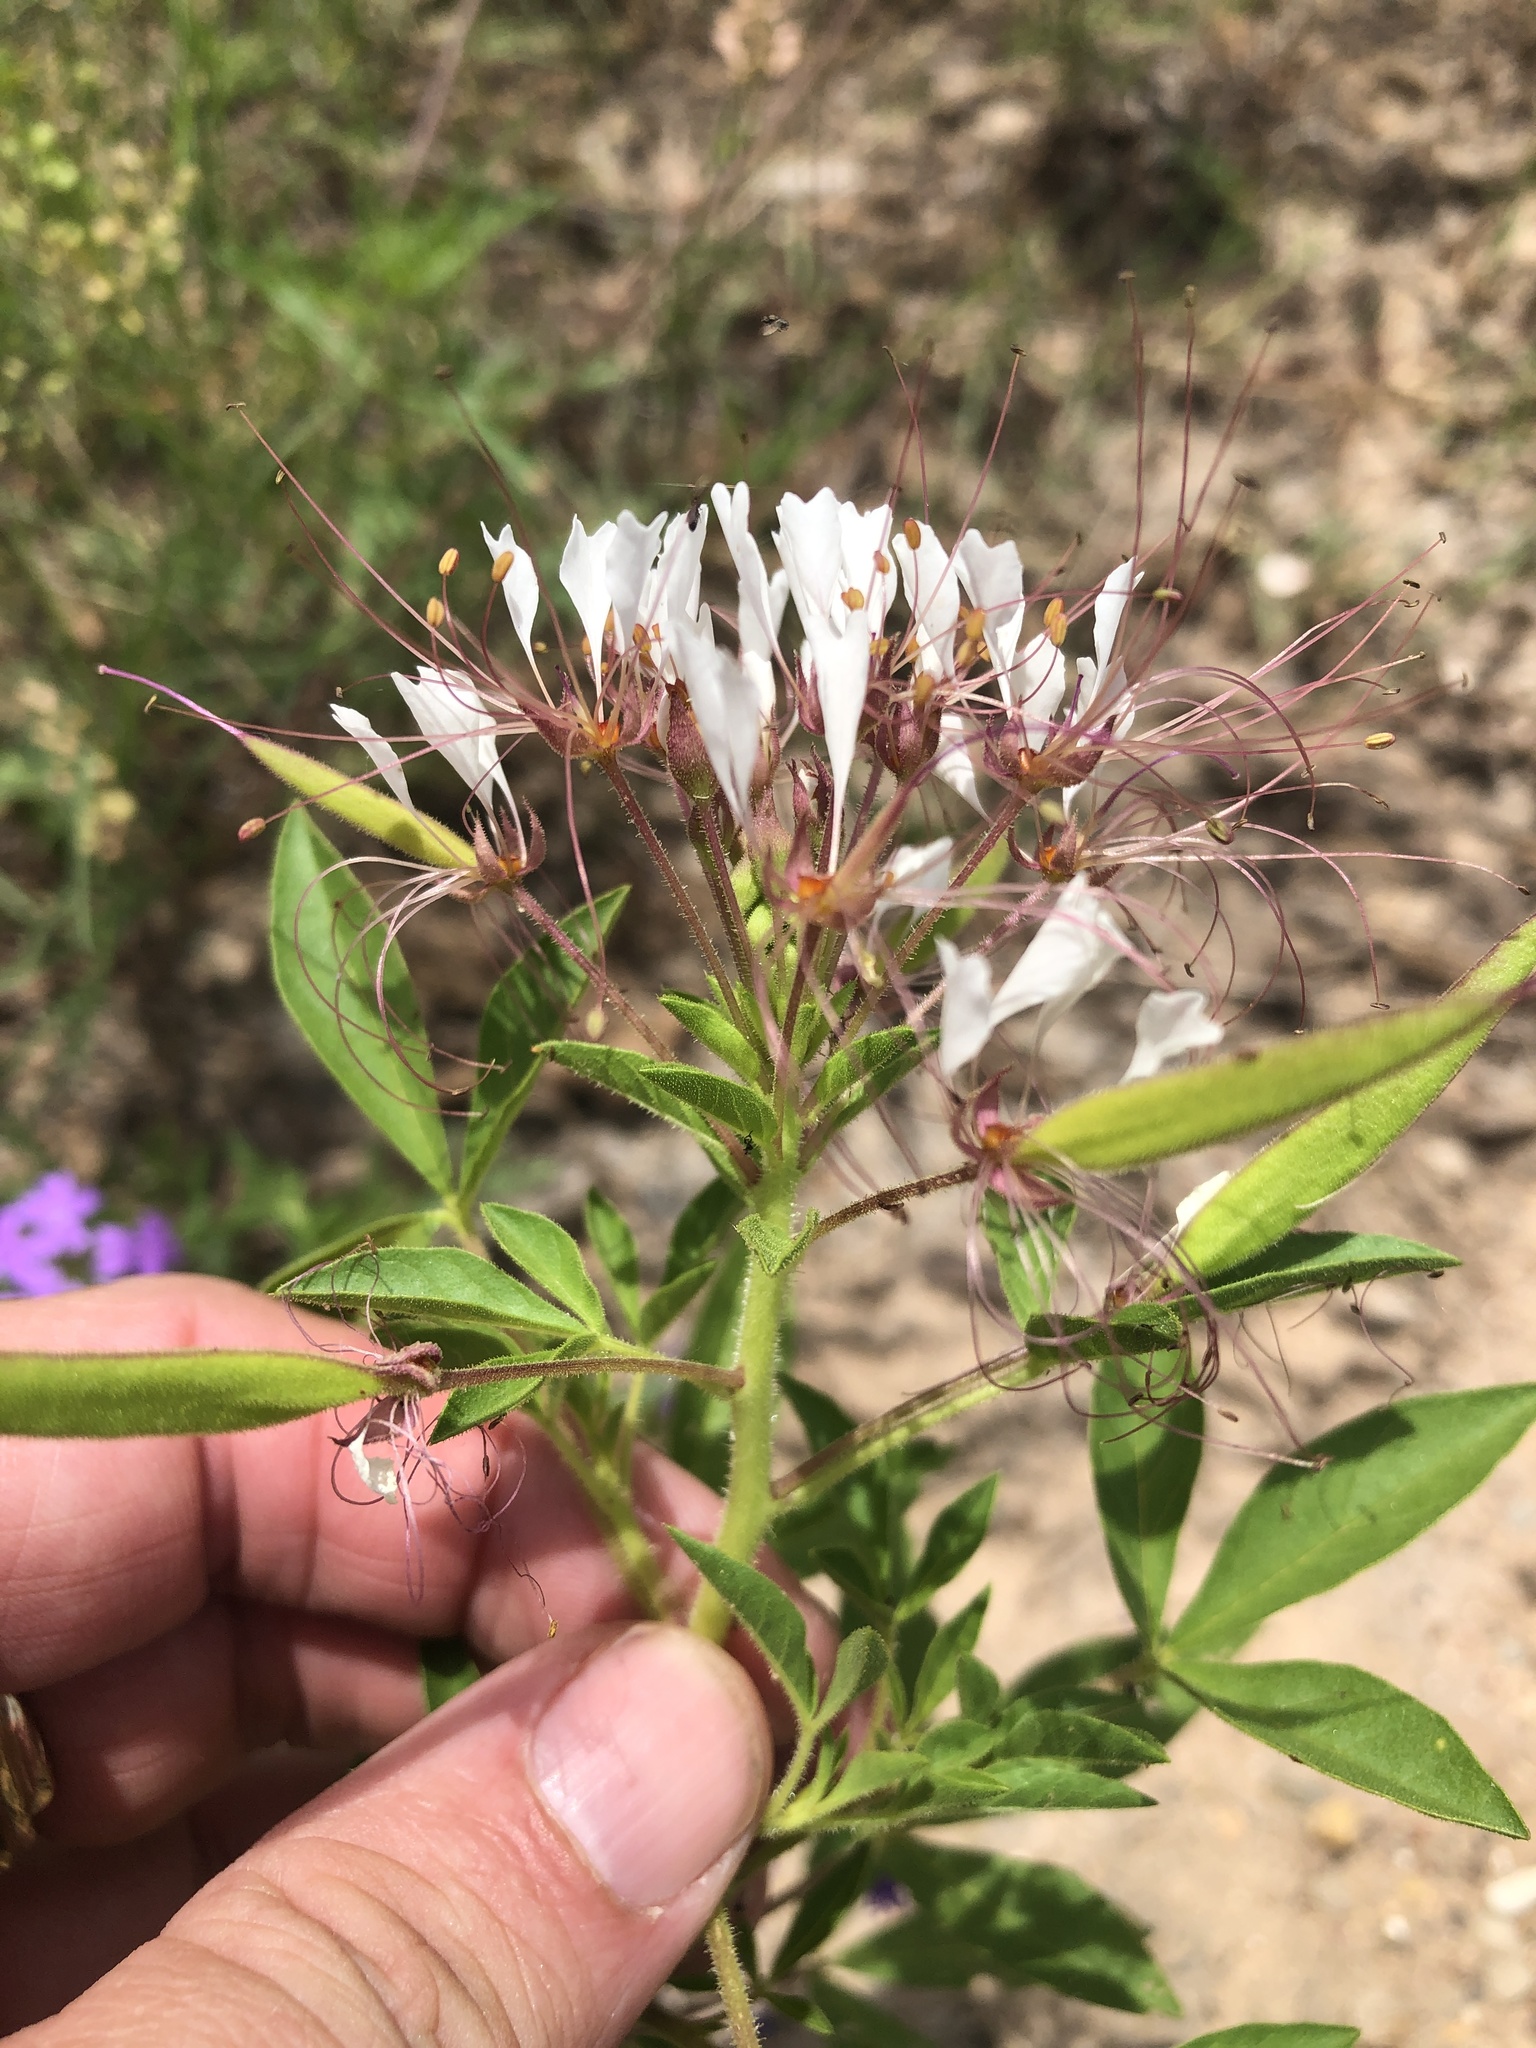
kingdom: Plantae
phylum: Tracheophyta
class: Magnoliopsida
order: Brassicales
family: Cleomaceae
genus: Polanisia
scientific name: Polanisia dodecandra
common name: Clammyweed
